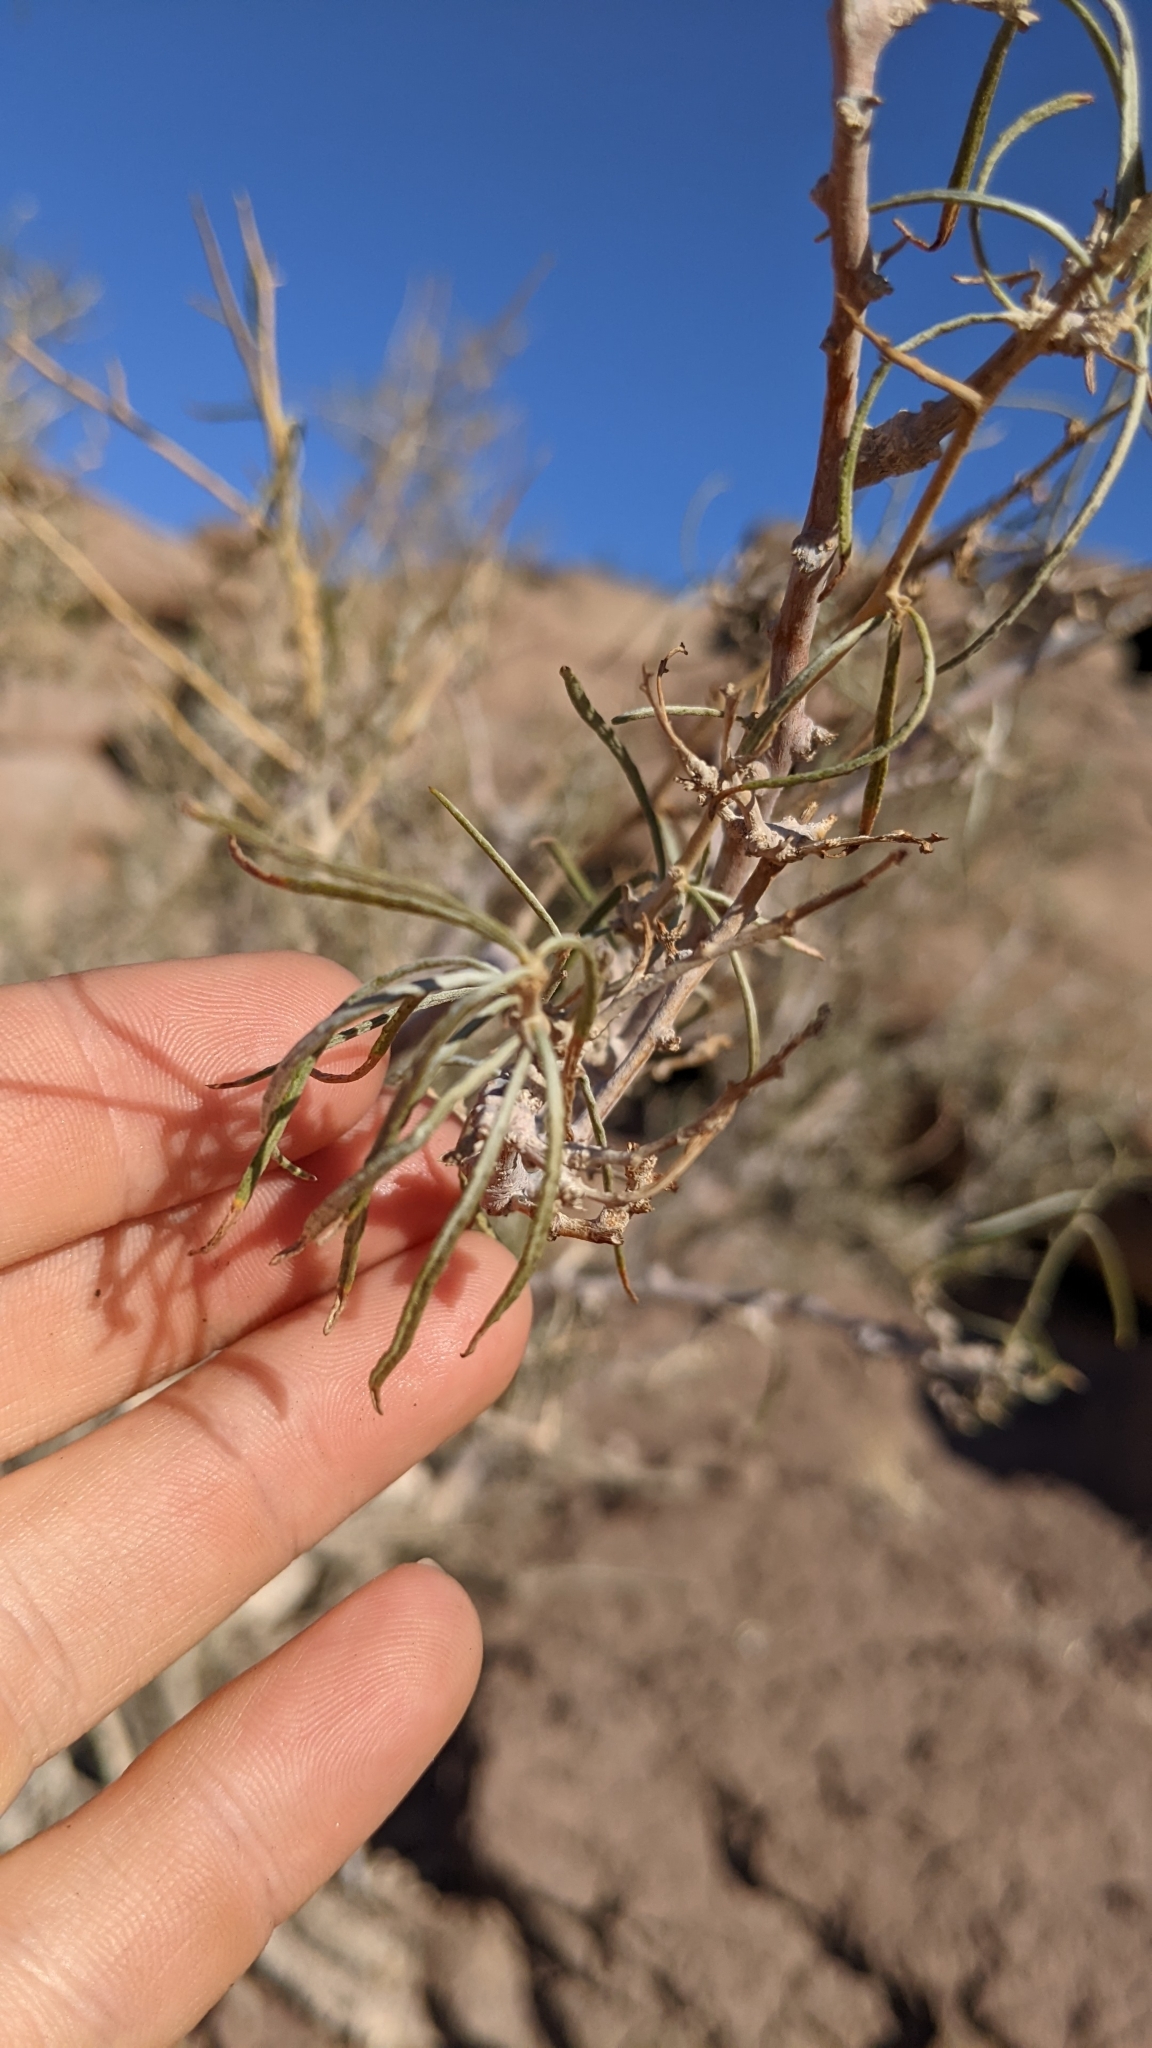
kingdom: Plantae
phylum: Tracheophyta
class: Magnoliopsida
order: Fabales
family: Fabaceae
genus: Psorothamnus
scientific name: Psorothamnus schottii
